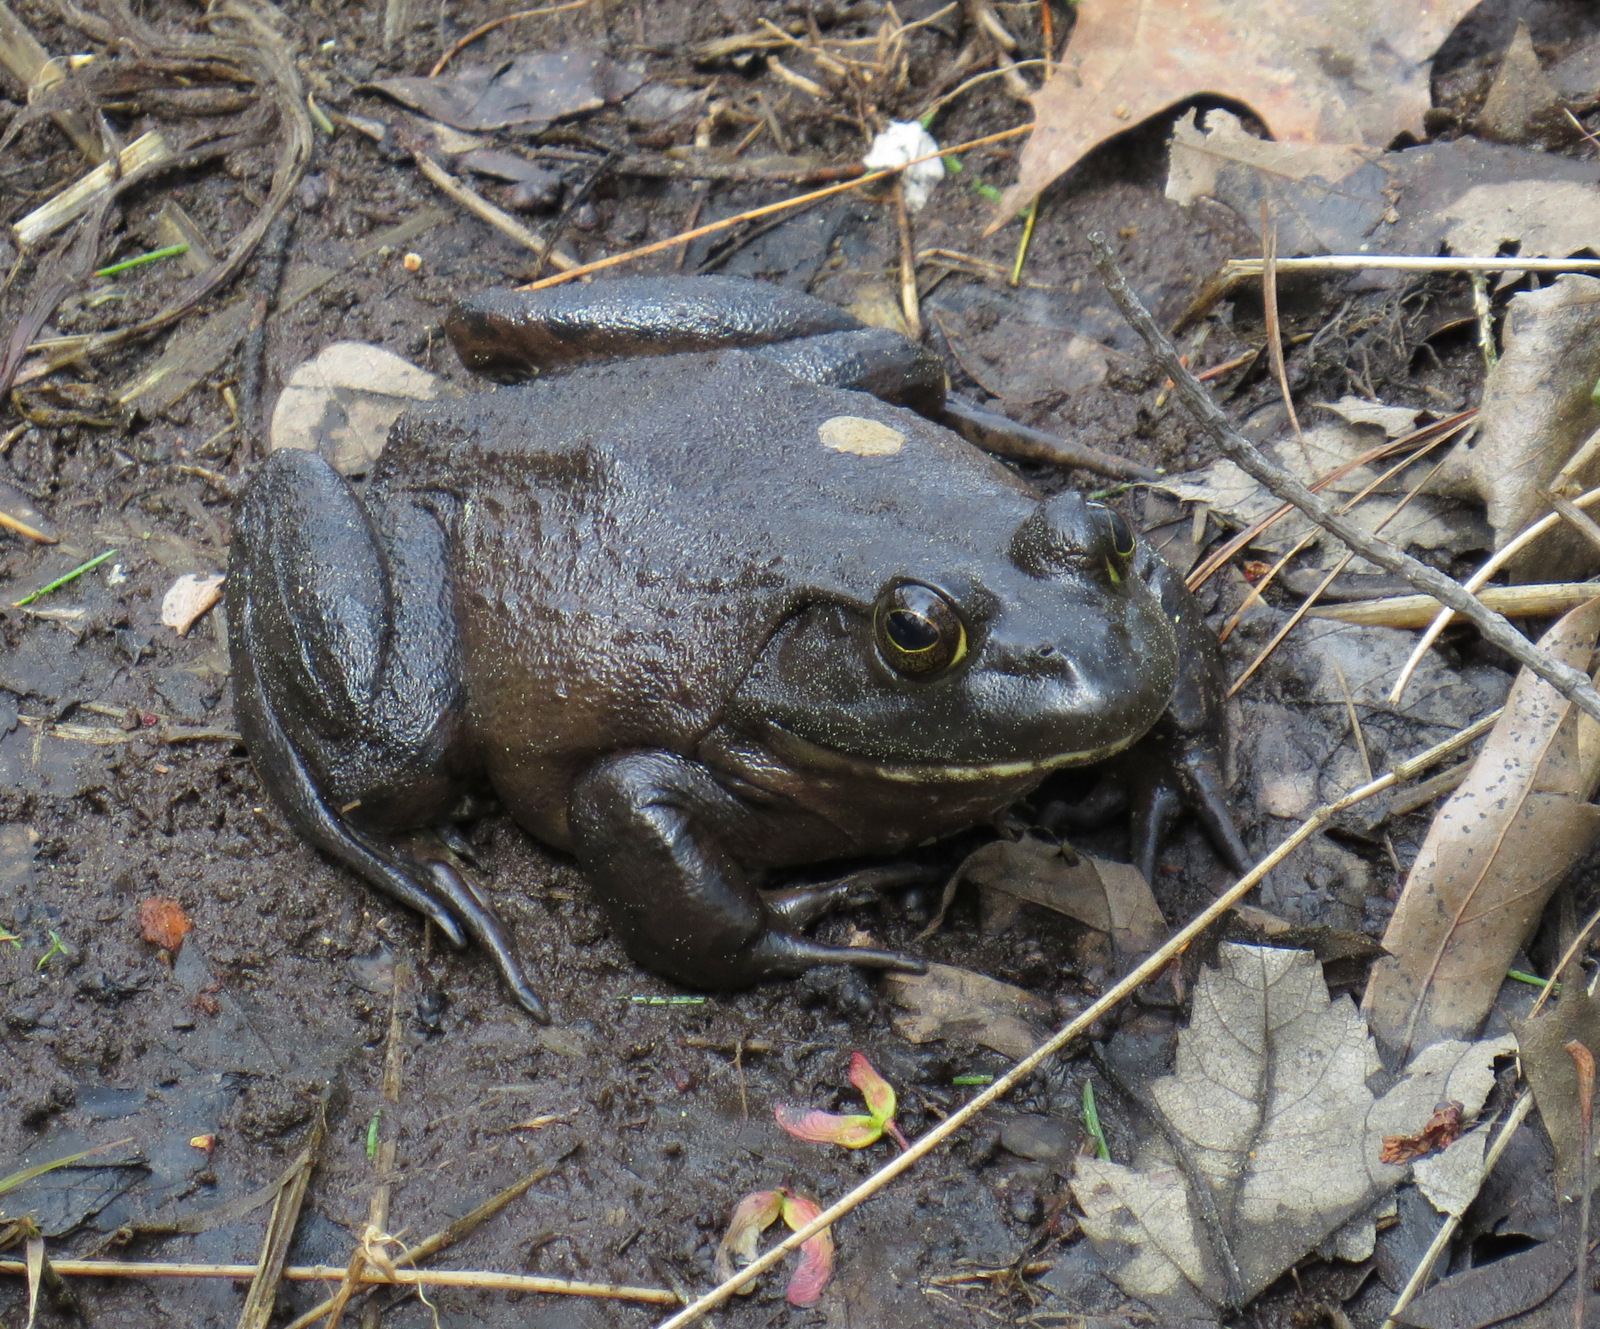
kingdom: Animalia
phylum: Chordata
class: Amphibia
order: Anura
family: Ranidae
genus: Lithobates
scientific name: Lithobates catesbeianus
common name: American bullfrog
